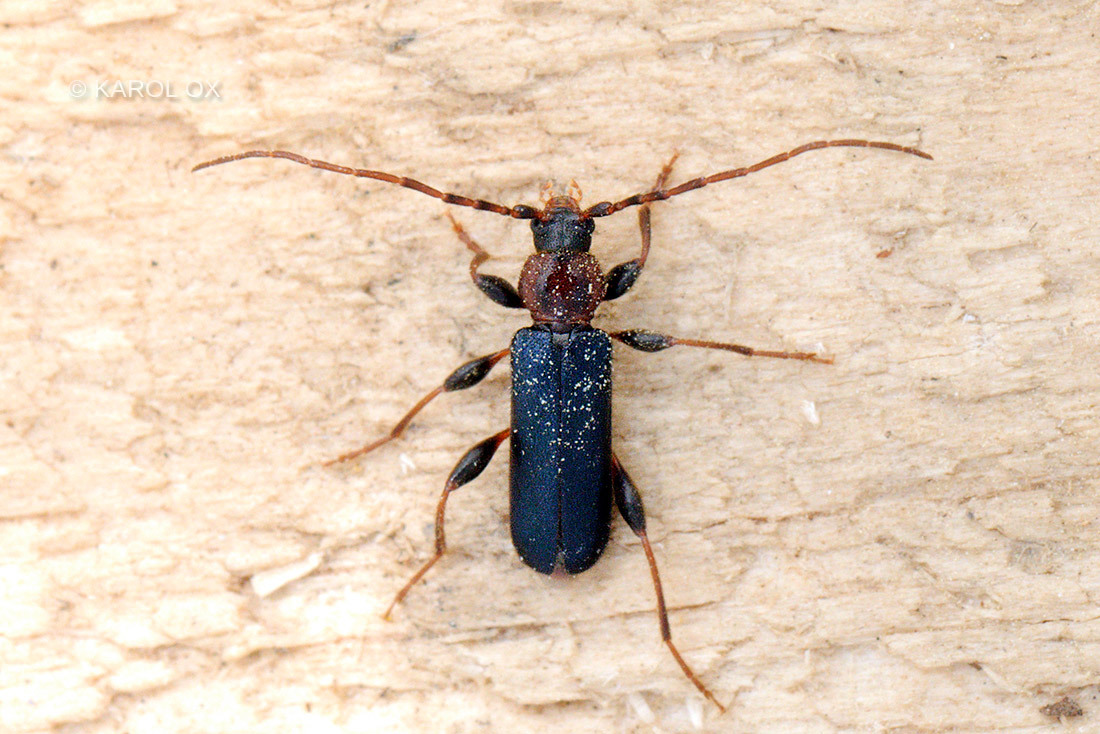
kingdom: Animalia
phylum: Arthropoda
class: Insecta
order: Coleoptera
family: Cerambycidae
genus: Phymatodes
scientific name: Phymatodes testaceus
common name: Long-horned beetle
